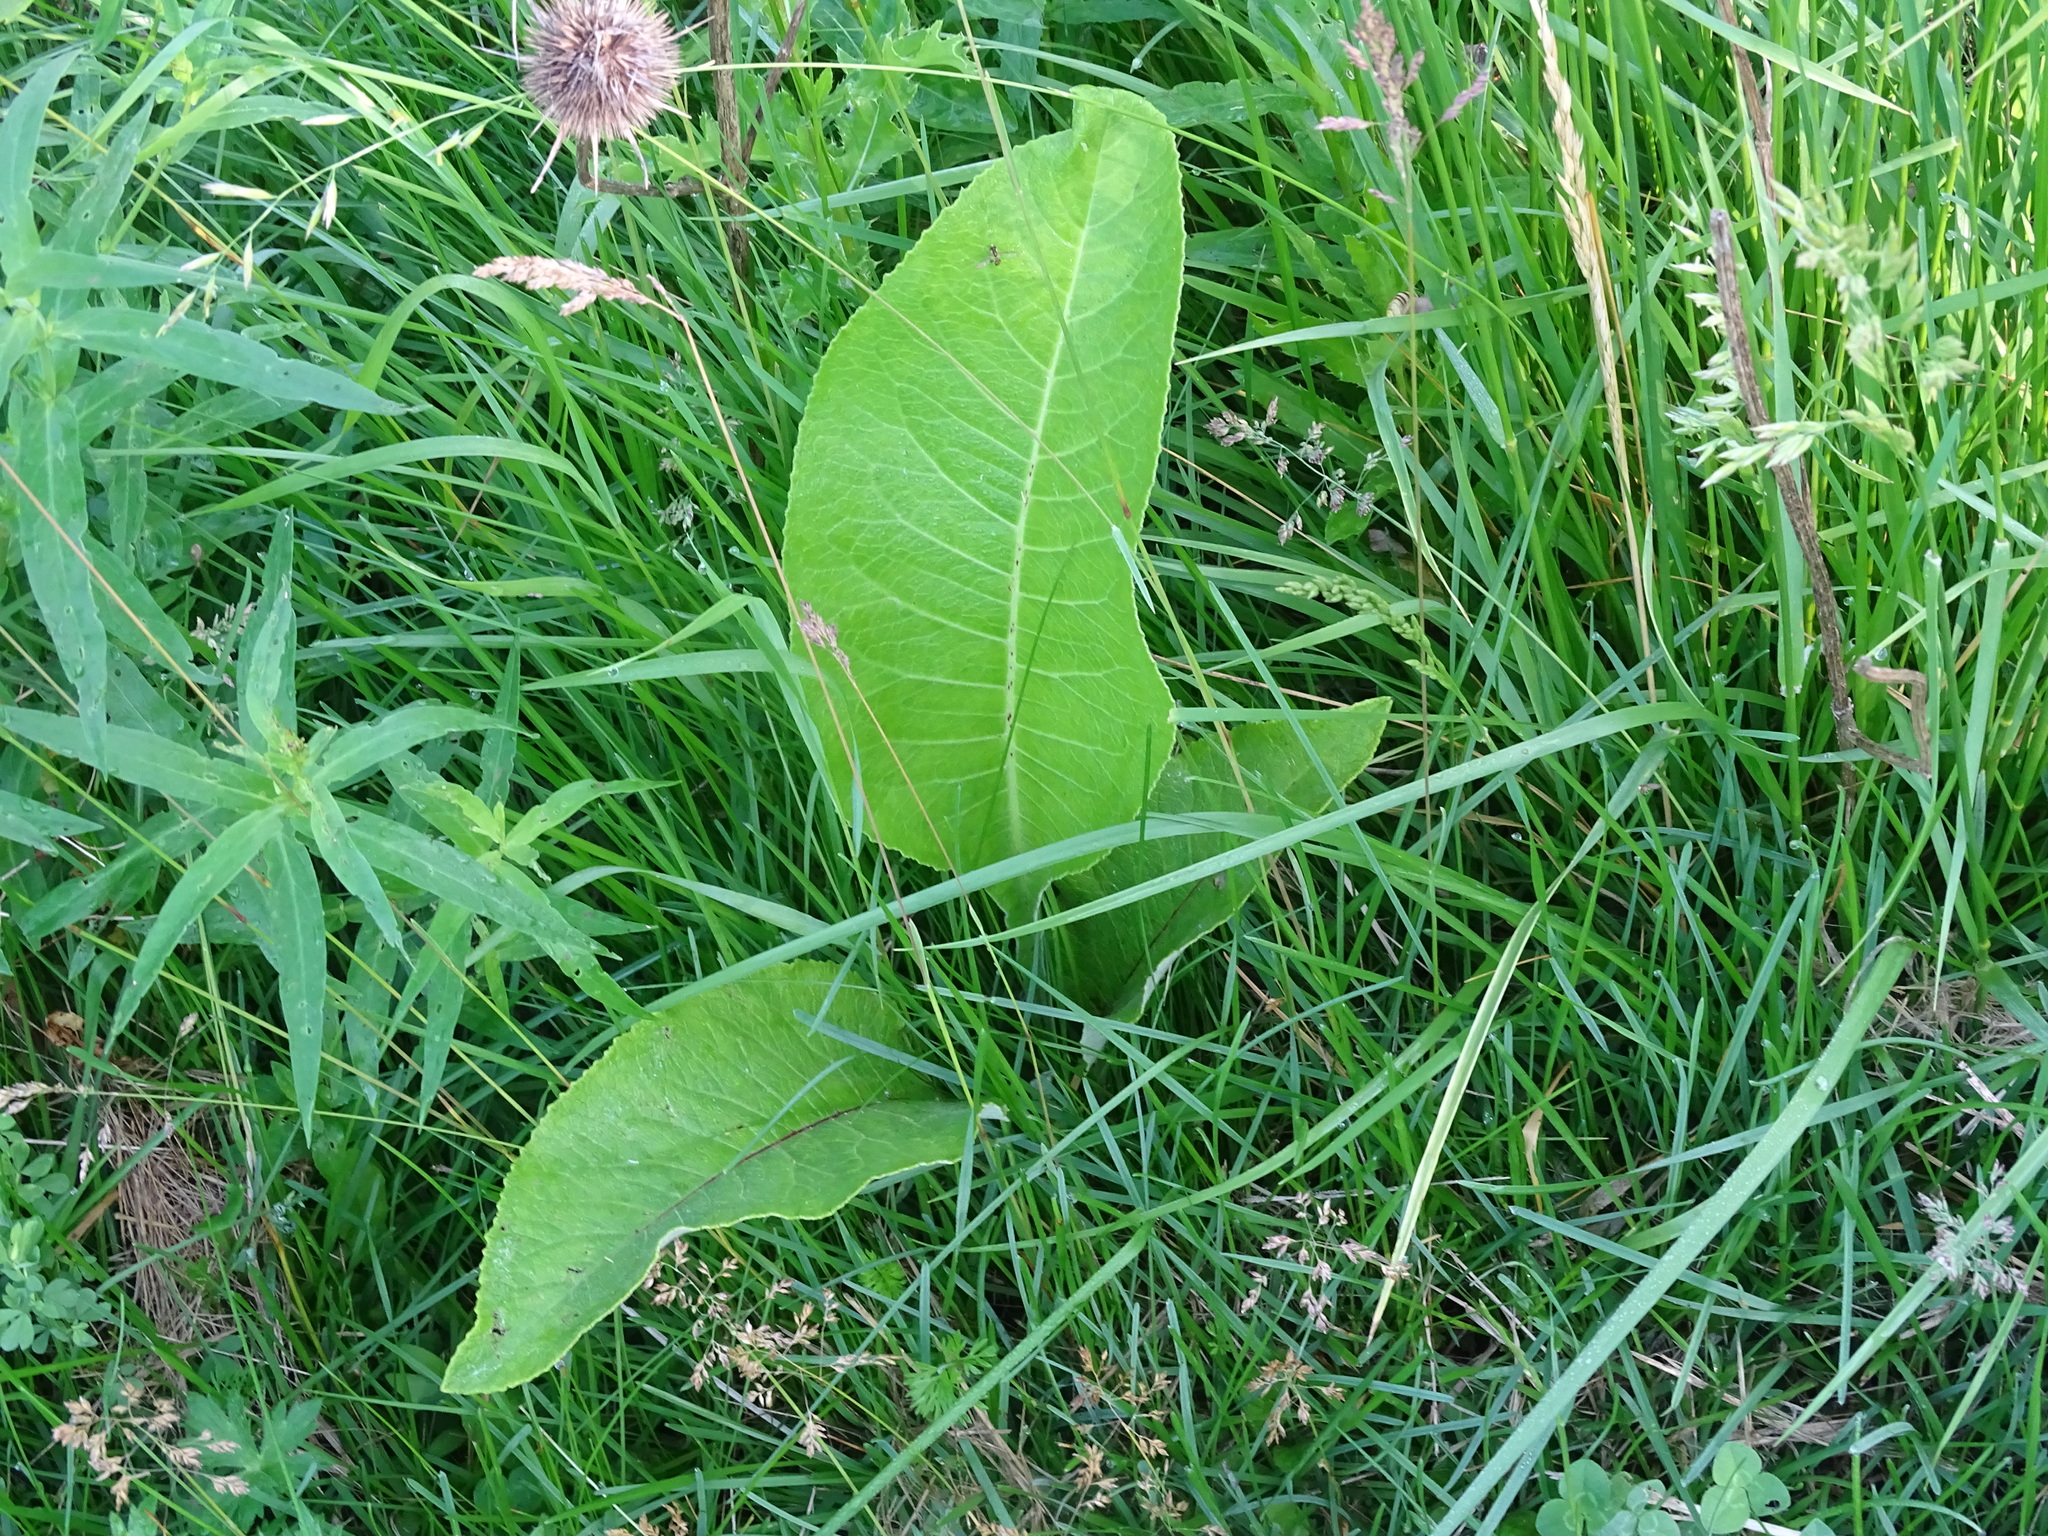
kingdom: Plantae
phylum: Tracheophyta
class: Magnoliopsida
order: Asterales
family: Asteraceae
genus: Inula
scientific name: Inula helenium
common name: Elecampane
